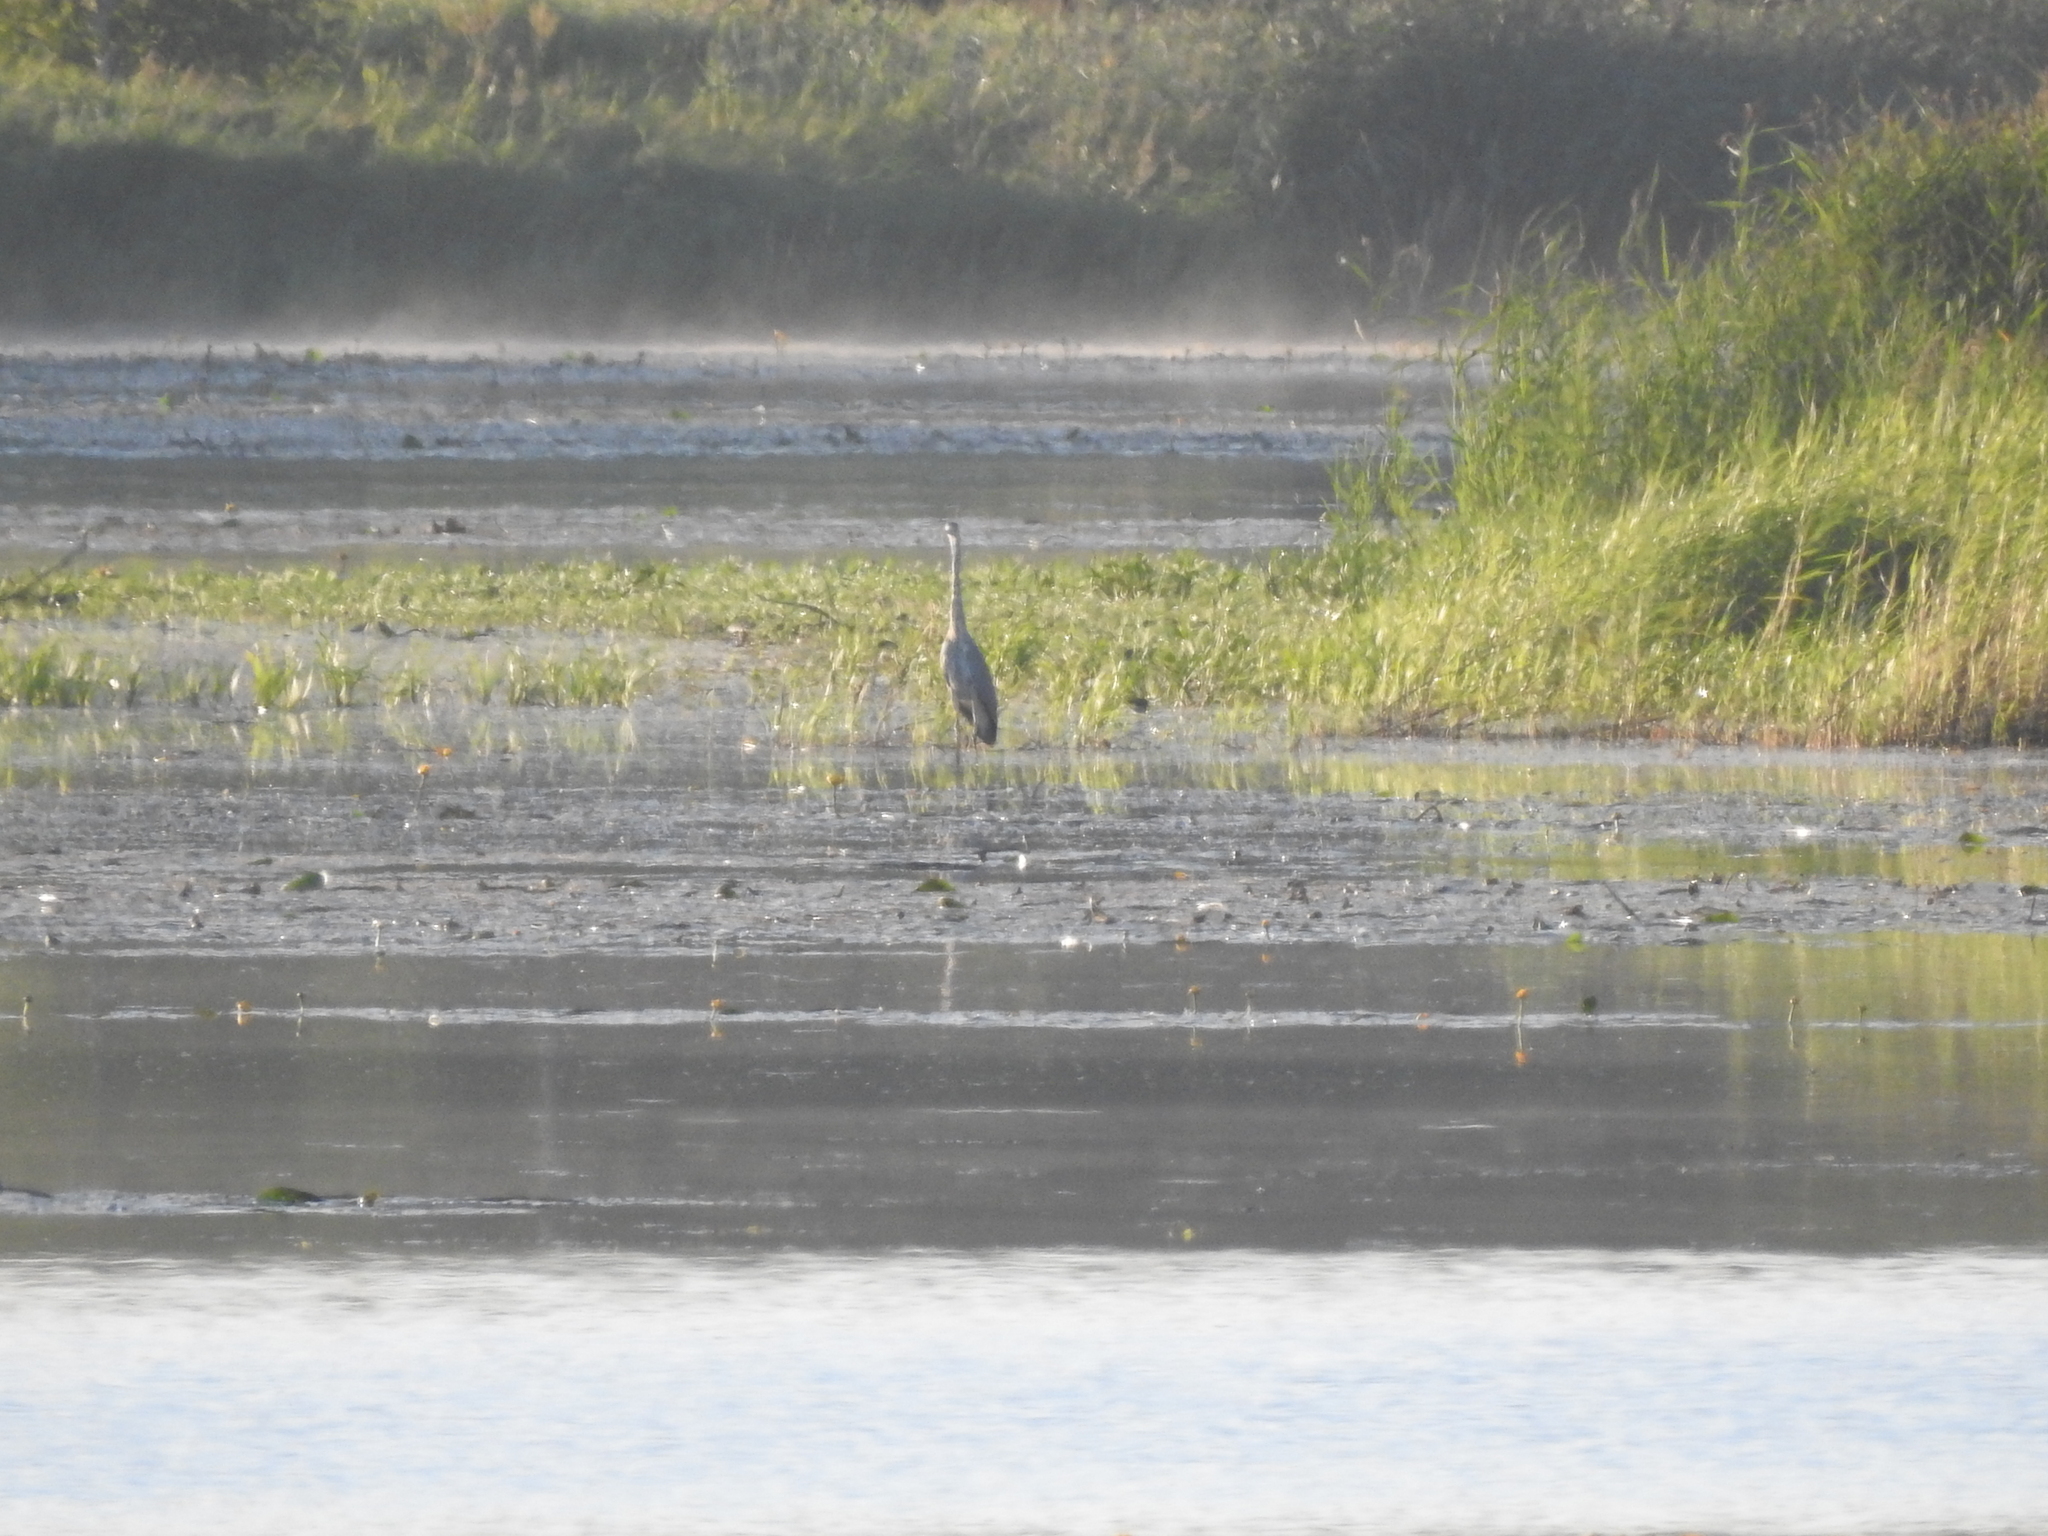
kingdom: Animalia
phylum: Chordata
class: Aves
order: Pelecaniformes
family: Ardeidae
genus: Ardea
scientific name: Ardea cinerea
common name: Grey heron
